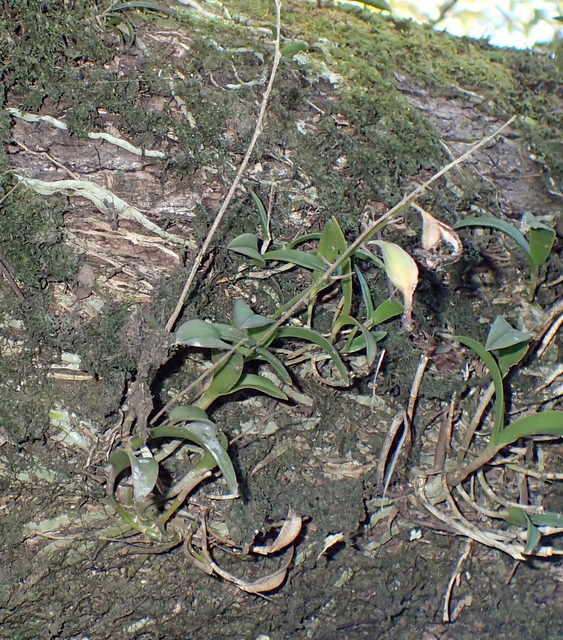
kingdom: Plantae
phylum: Tracheophyta
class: Liliopsida
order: Asparagales
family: Orchidaceae
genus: Epidendrum
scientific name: Epidendrum conopseum
